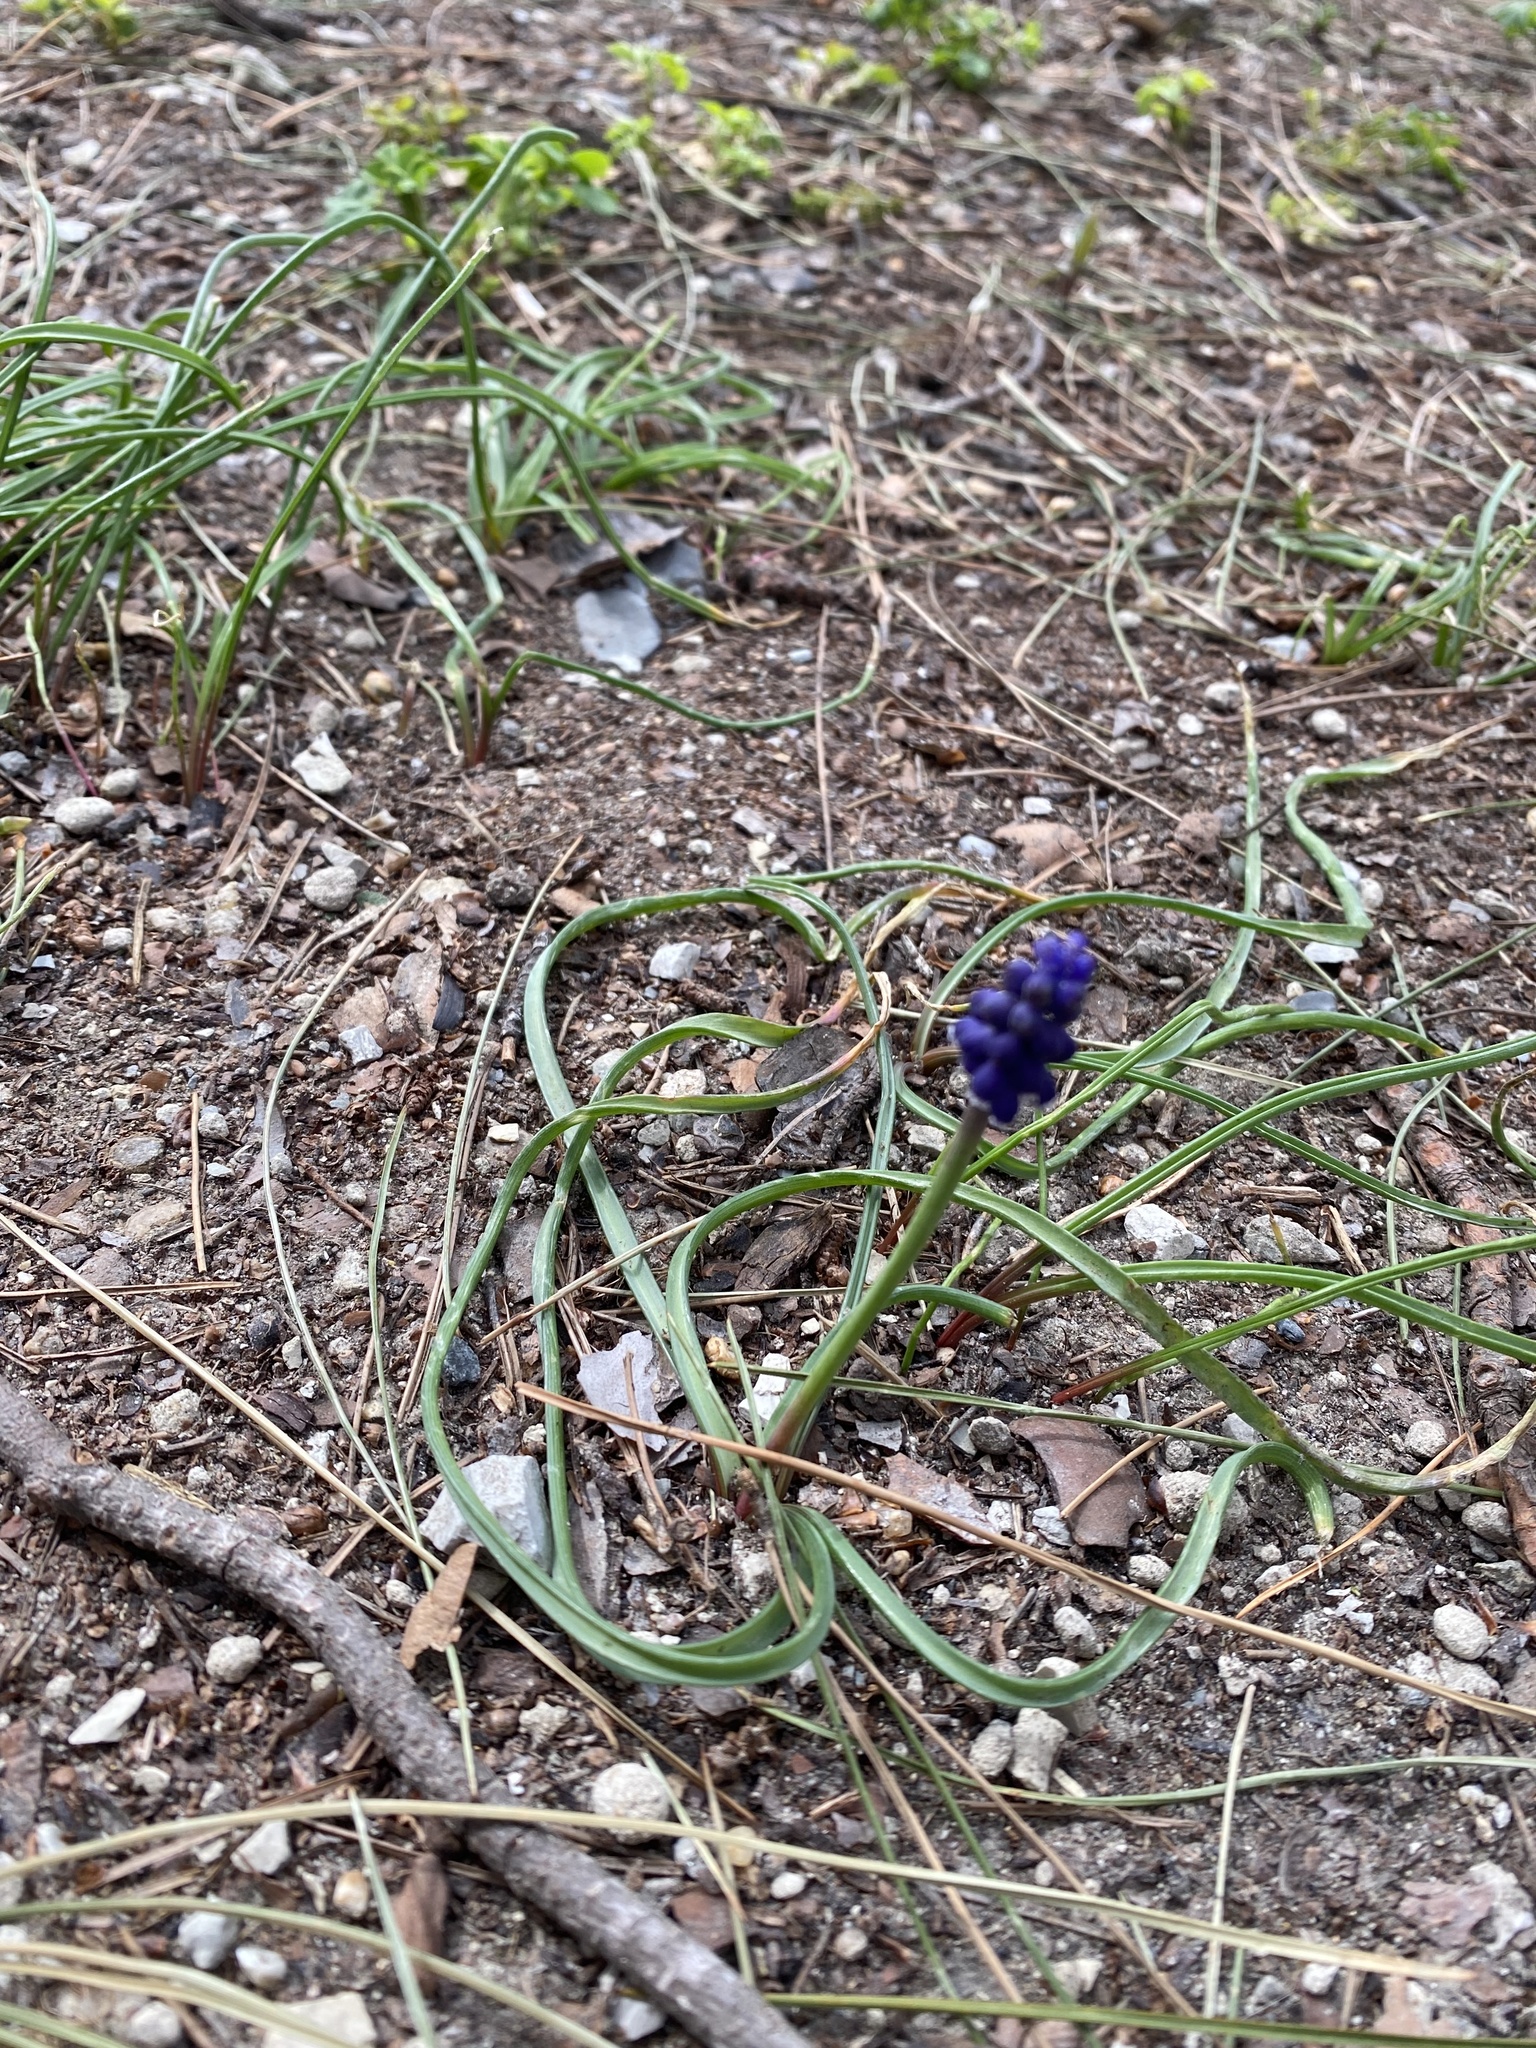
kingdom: Plantae
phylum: Tracheophyta
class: Liliopsida
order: Asparagales
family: Asparagaceae
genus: Muscari
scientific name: Muscari neglectum
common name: Grape-hyacinth
